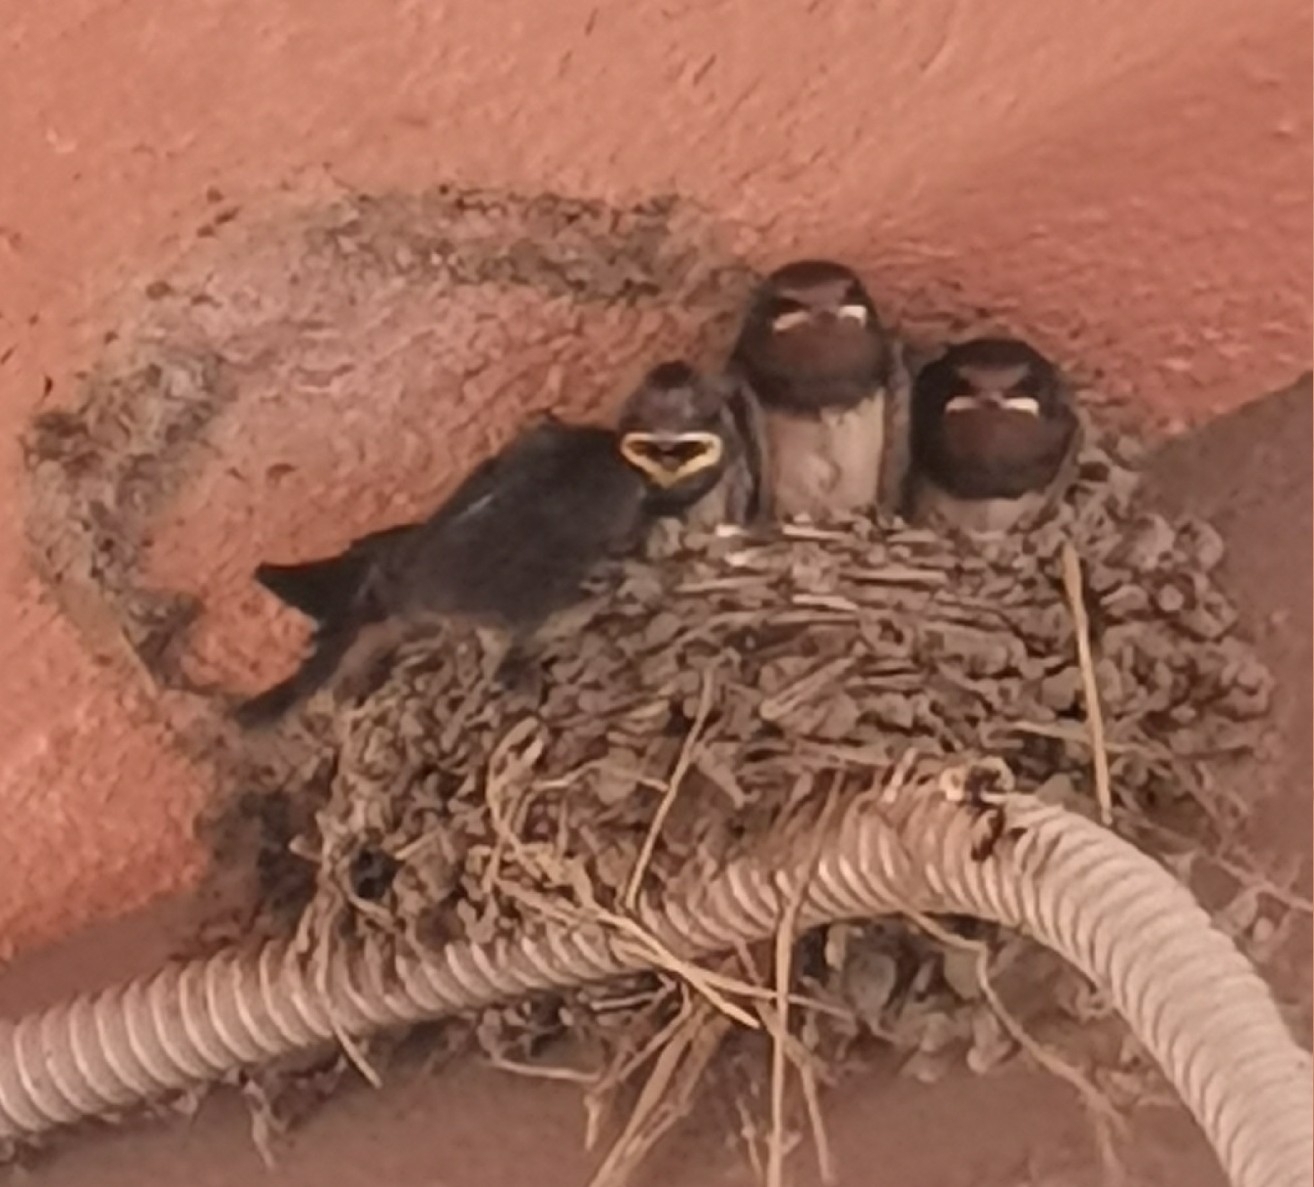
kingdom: Animalia
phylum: Chordata
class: Aves
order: Passeriformes
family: Hirundinidae
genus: Hirundo
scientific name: Hirundo rustica
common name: Barn swallow
